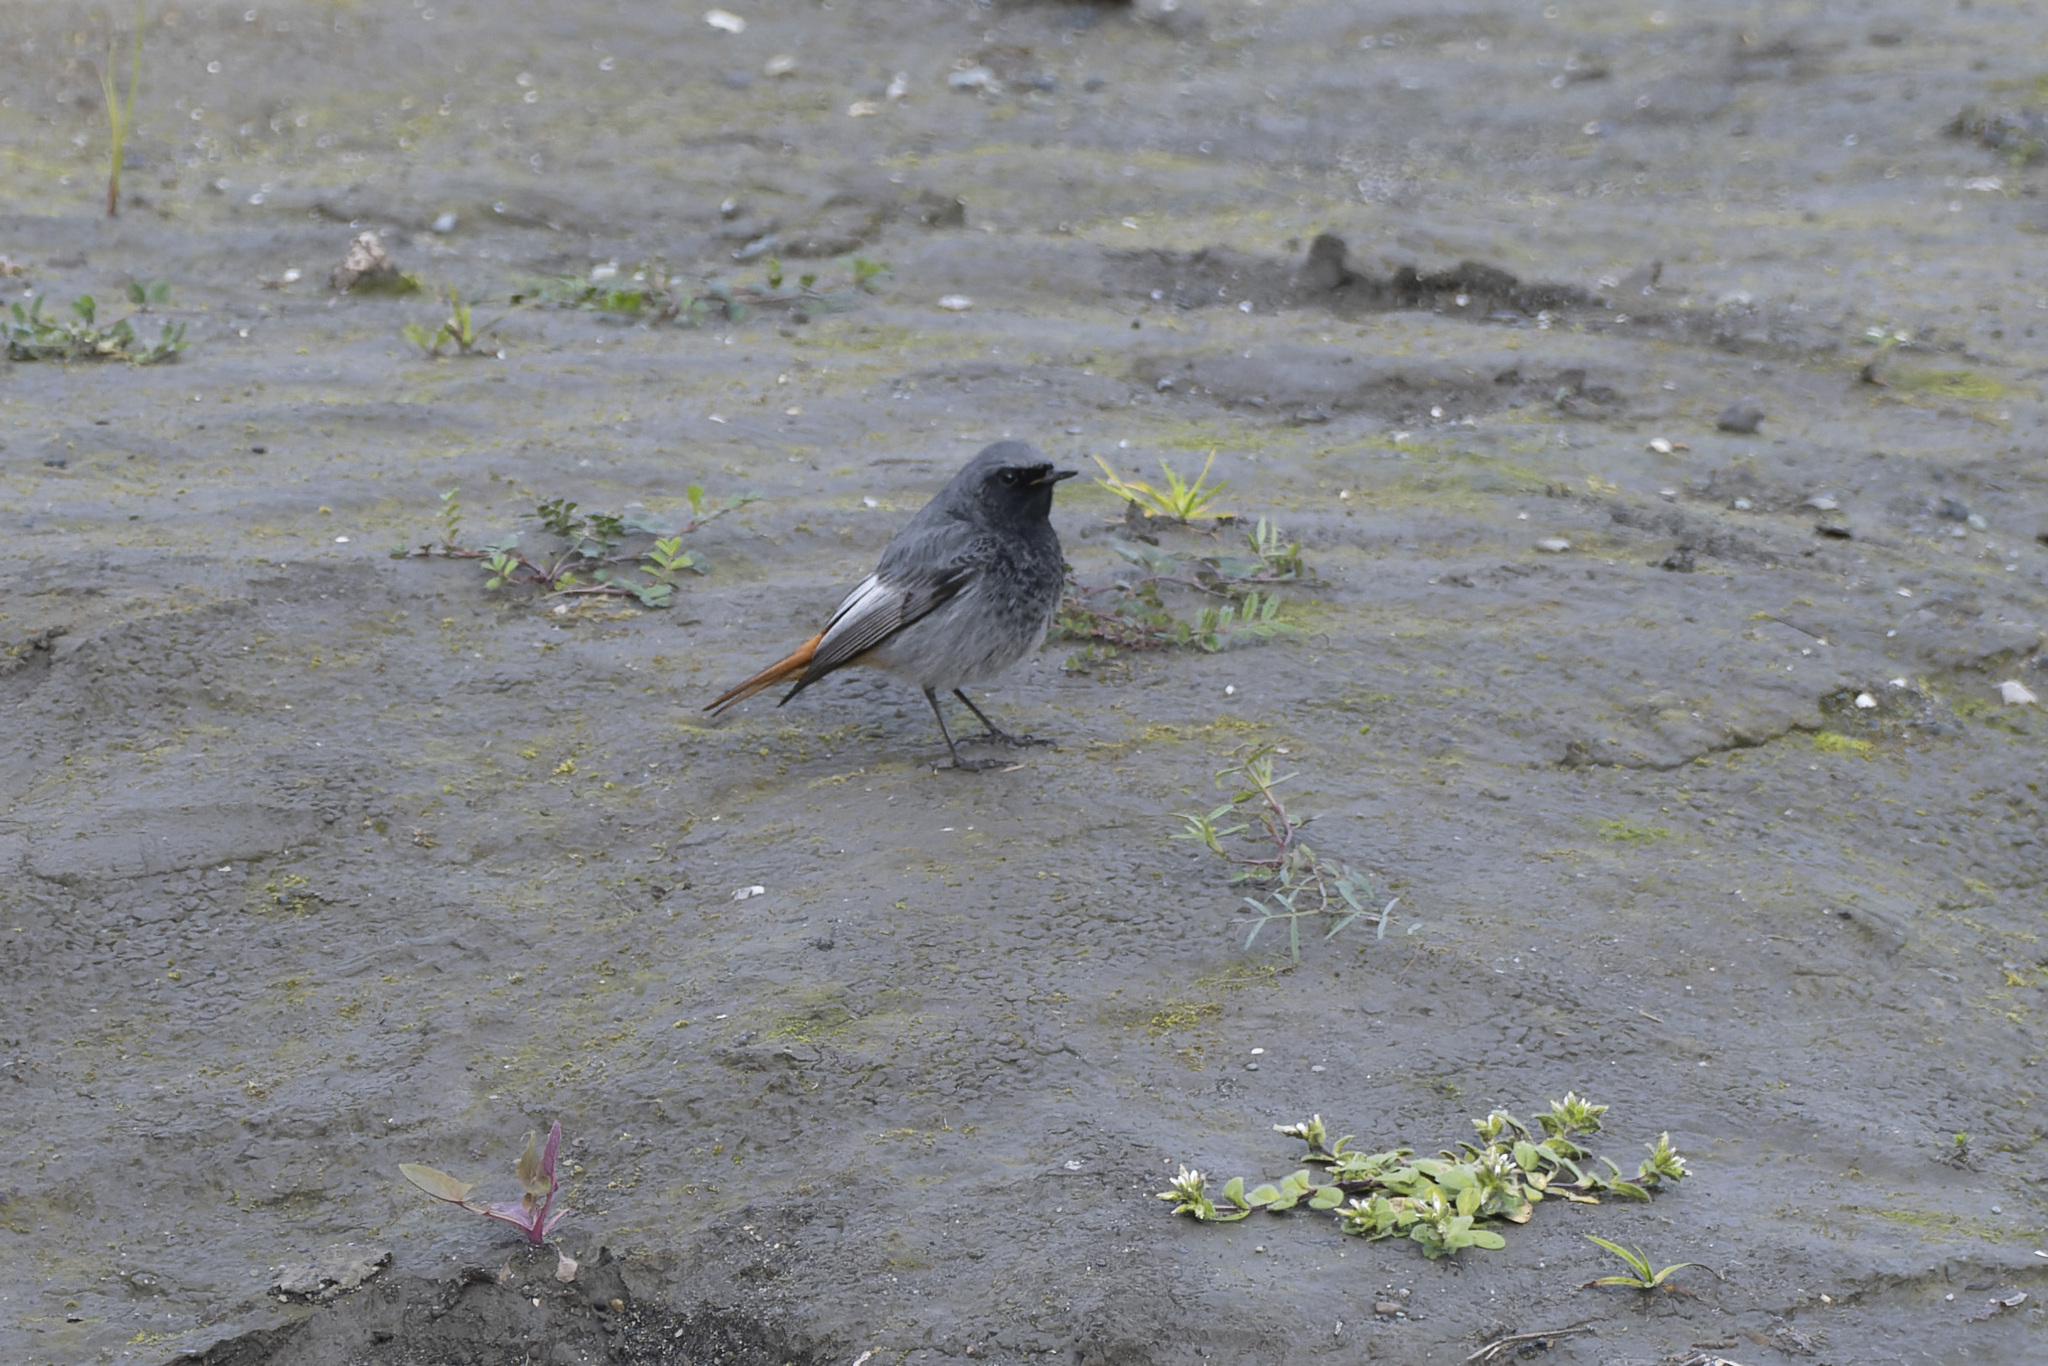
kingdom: Animalia
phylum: Chordata
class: Aves
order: Passeriformes
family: Muscicapidae
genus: Phoenicurus
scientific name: Phoenicurus ochruros
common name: Black redstart
